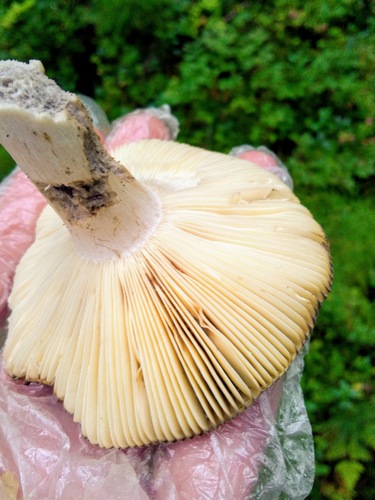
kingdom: Fungi
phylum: Basidiomycota
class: Agaricomycetes
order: Russulales
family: Russulaceae
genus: Russula
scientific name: Russula
